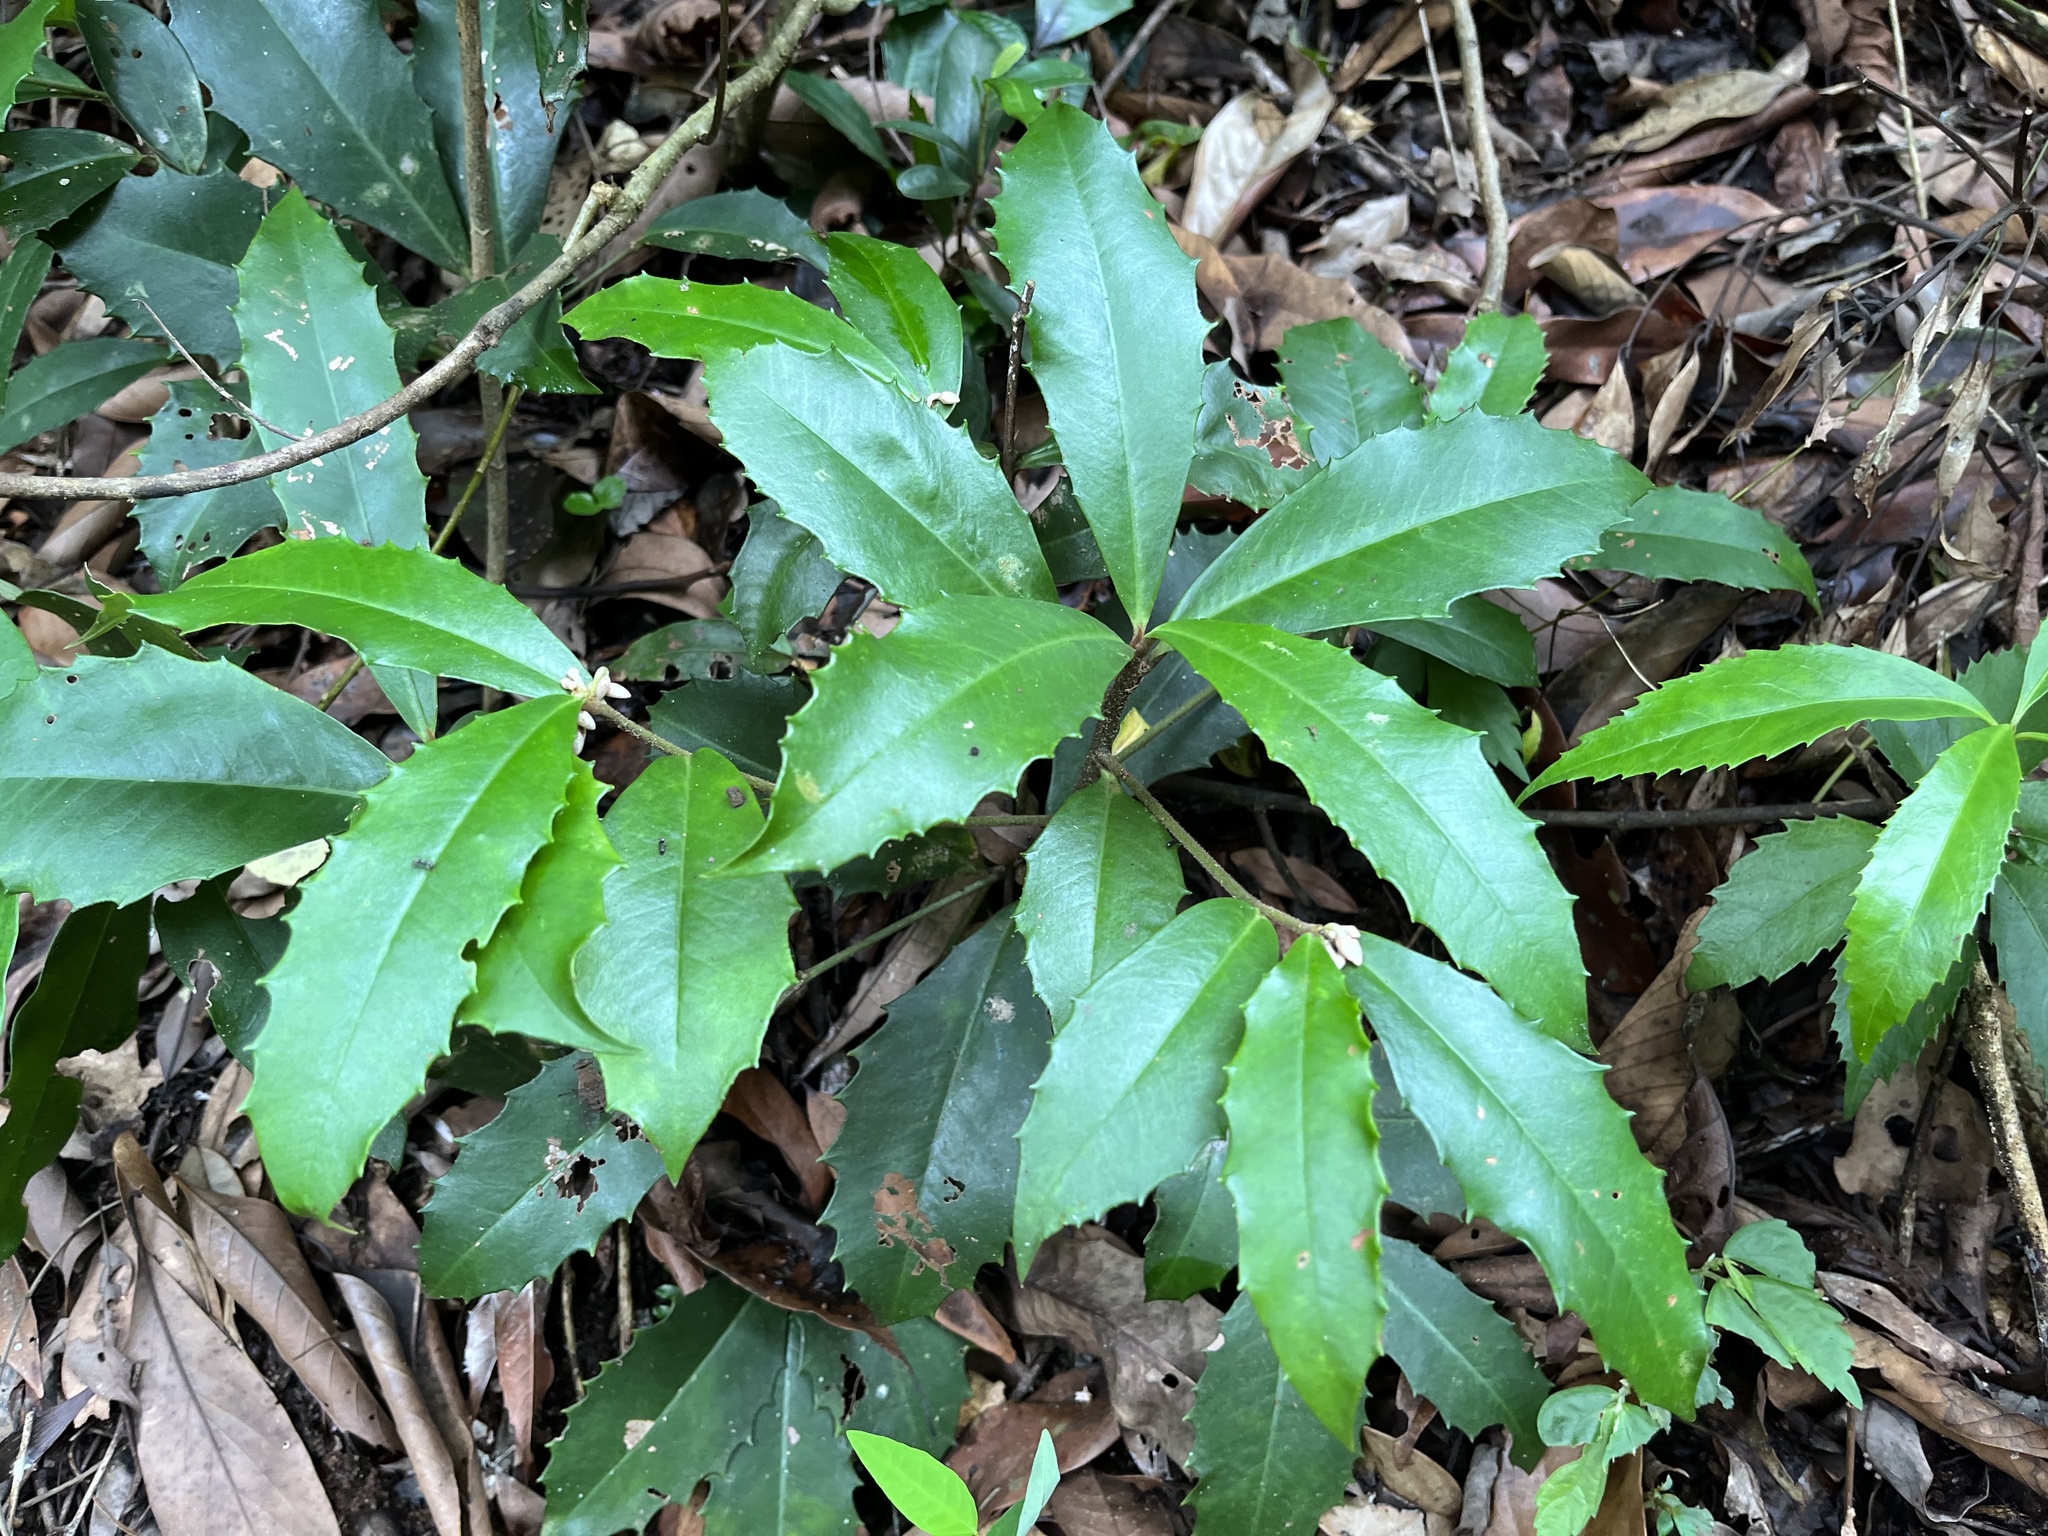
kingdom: Plantae
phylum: Tracheophyta
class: Magnoliopsida
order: Ericales
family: Primulaceae
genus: Ardisia
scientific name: Ardisia cornudentata
